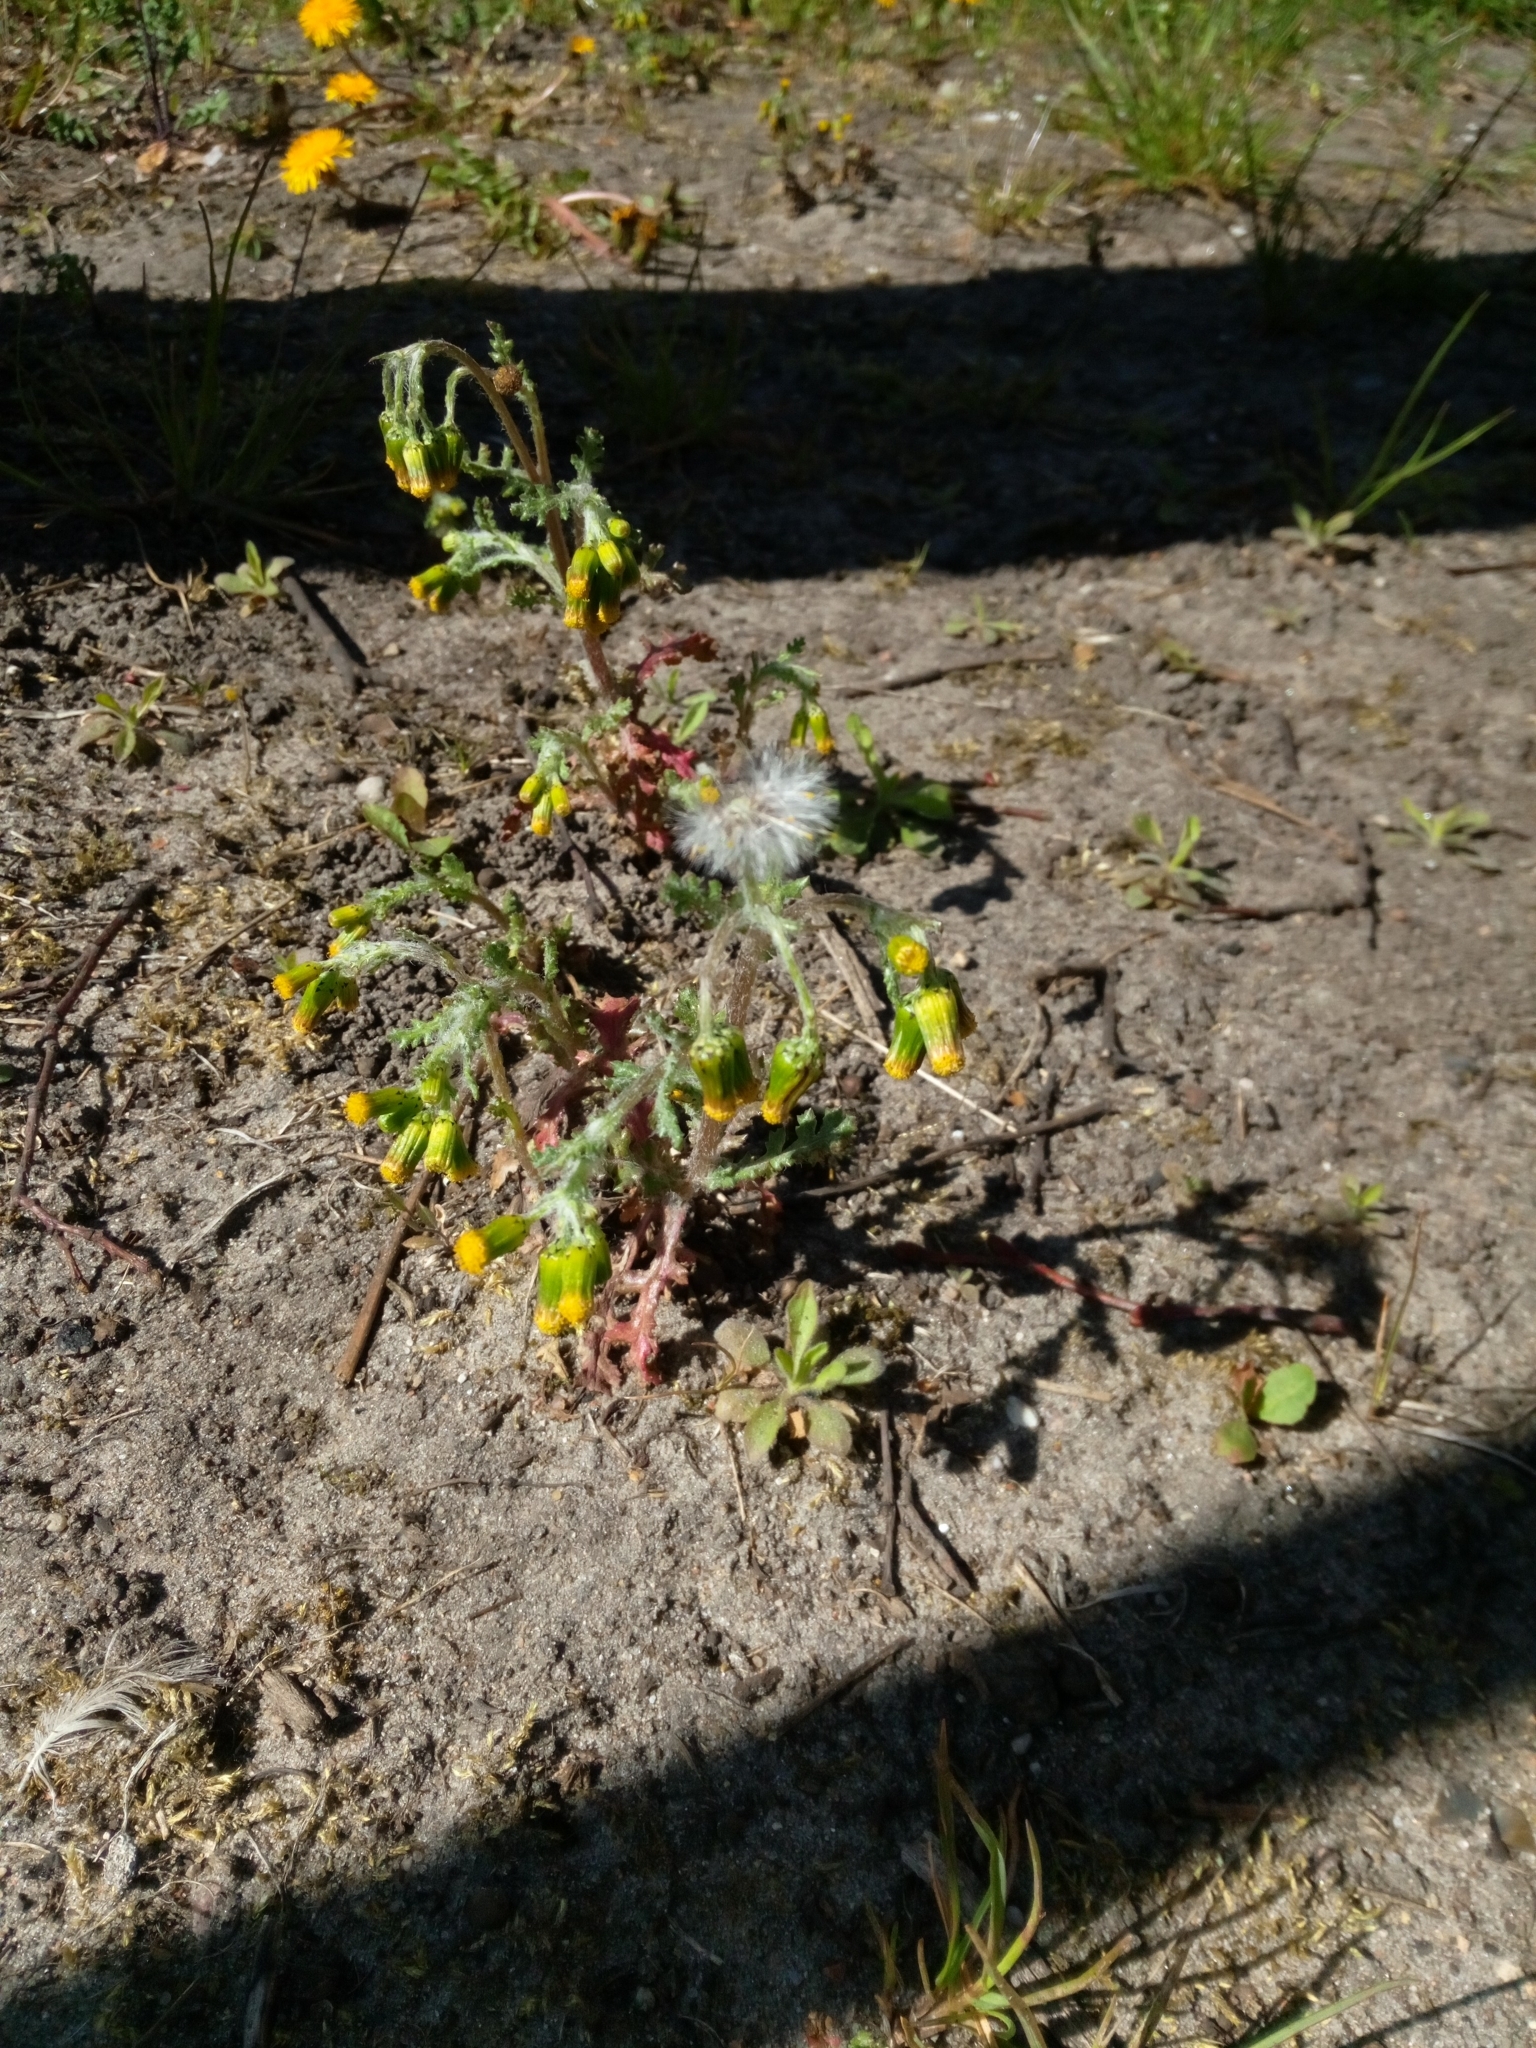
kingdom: Plantae
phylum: Tracheophyta
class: Magnoliopsida
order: Asterales
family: Asteraceae
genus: Senecio
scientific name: Senecio vulgaris
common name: Old-man-in-the-spring
